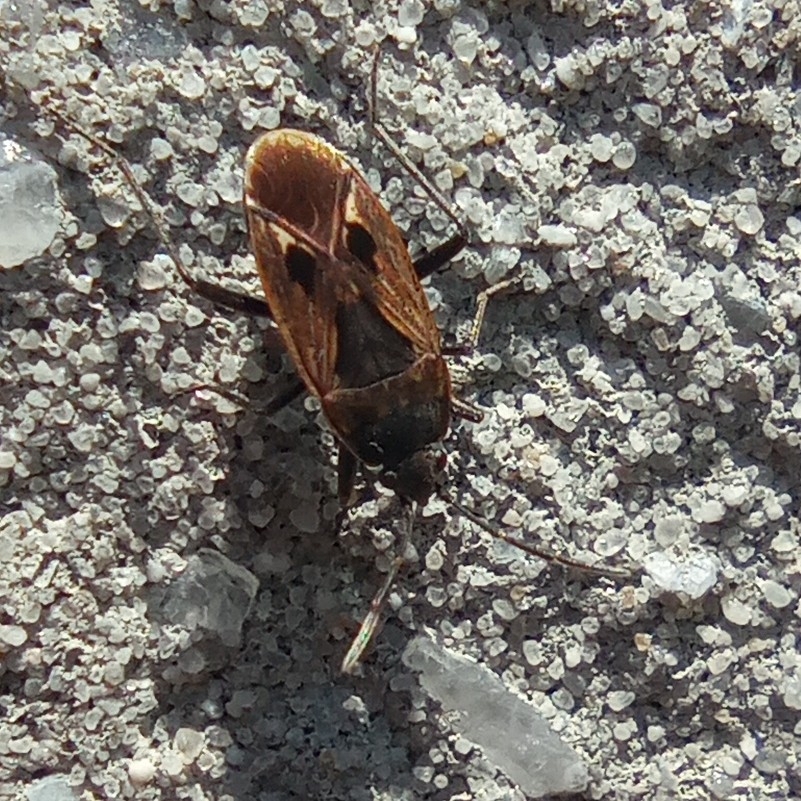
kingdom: Animalia
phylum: Arthropoda
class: Insecta
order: Hemiptera
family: Rhyparochromidae
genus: Rhyparochromus
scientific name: Rhyparochromus pini
